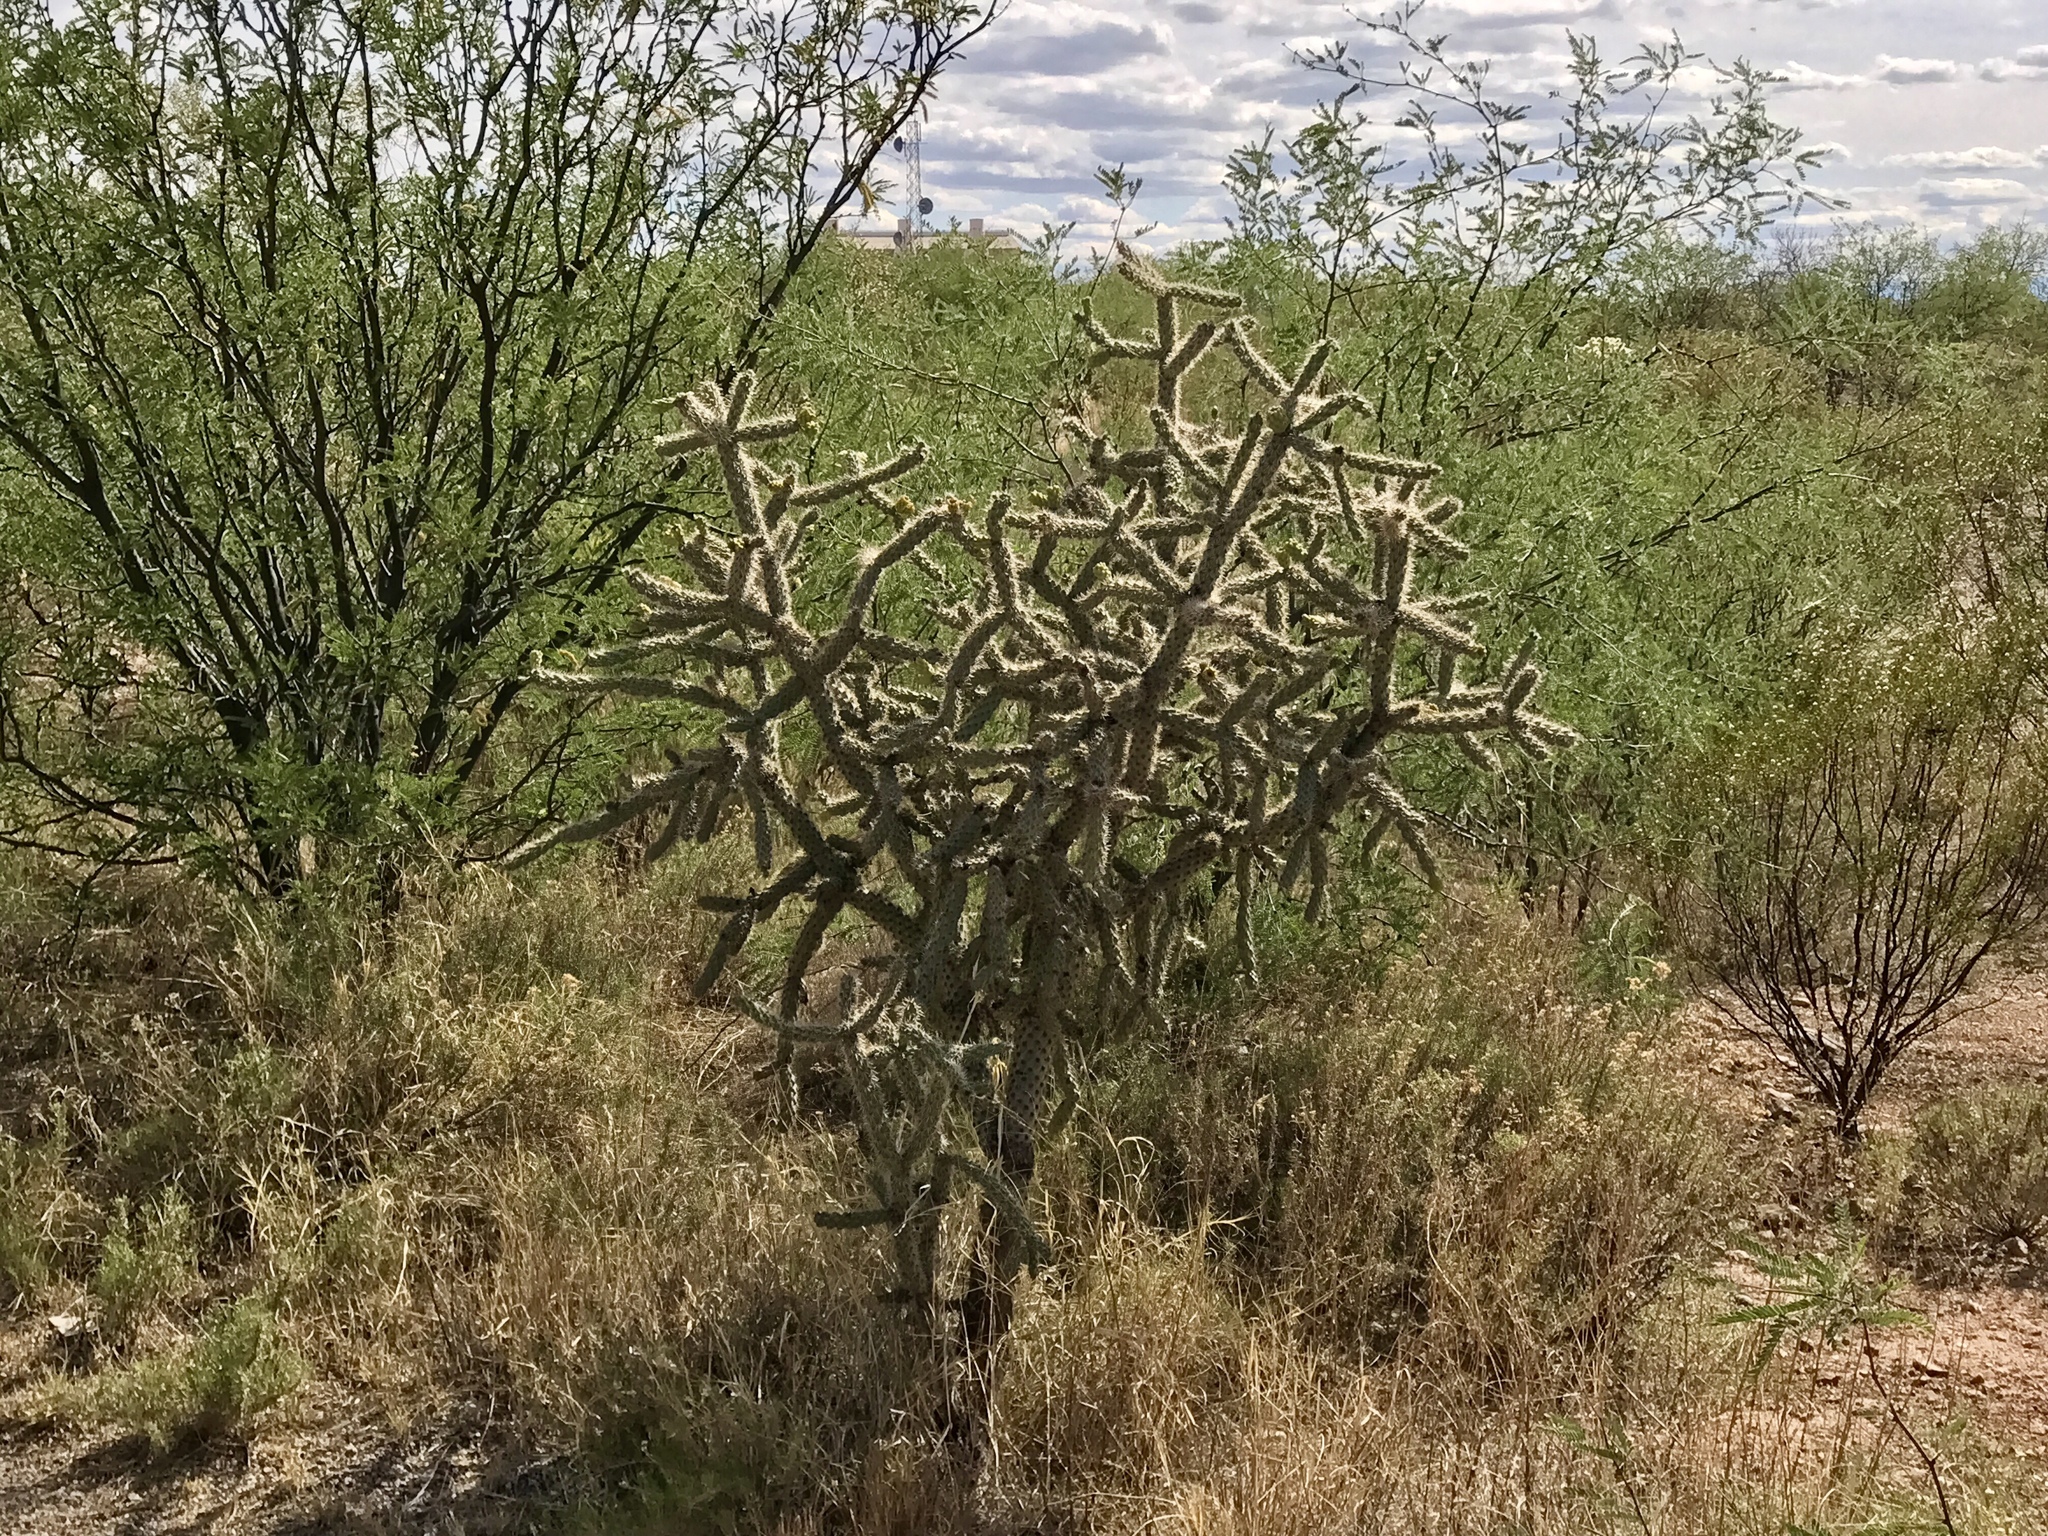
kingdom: Plantae
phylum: Tracheophyta
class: Magnoliopsida
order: Caryophyllales
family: Cactaceae
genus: Cylindropuntia
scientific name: Cylindropuntia imbricata
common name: Candelabrum cactus
